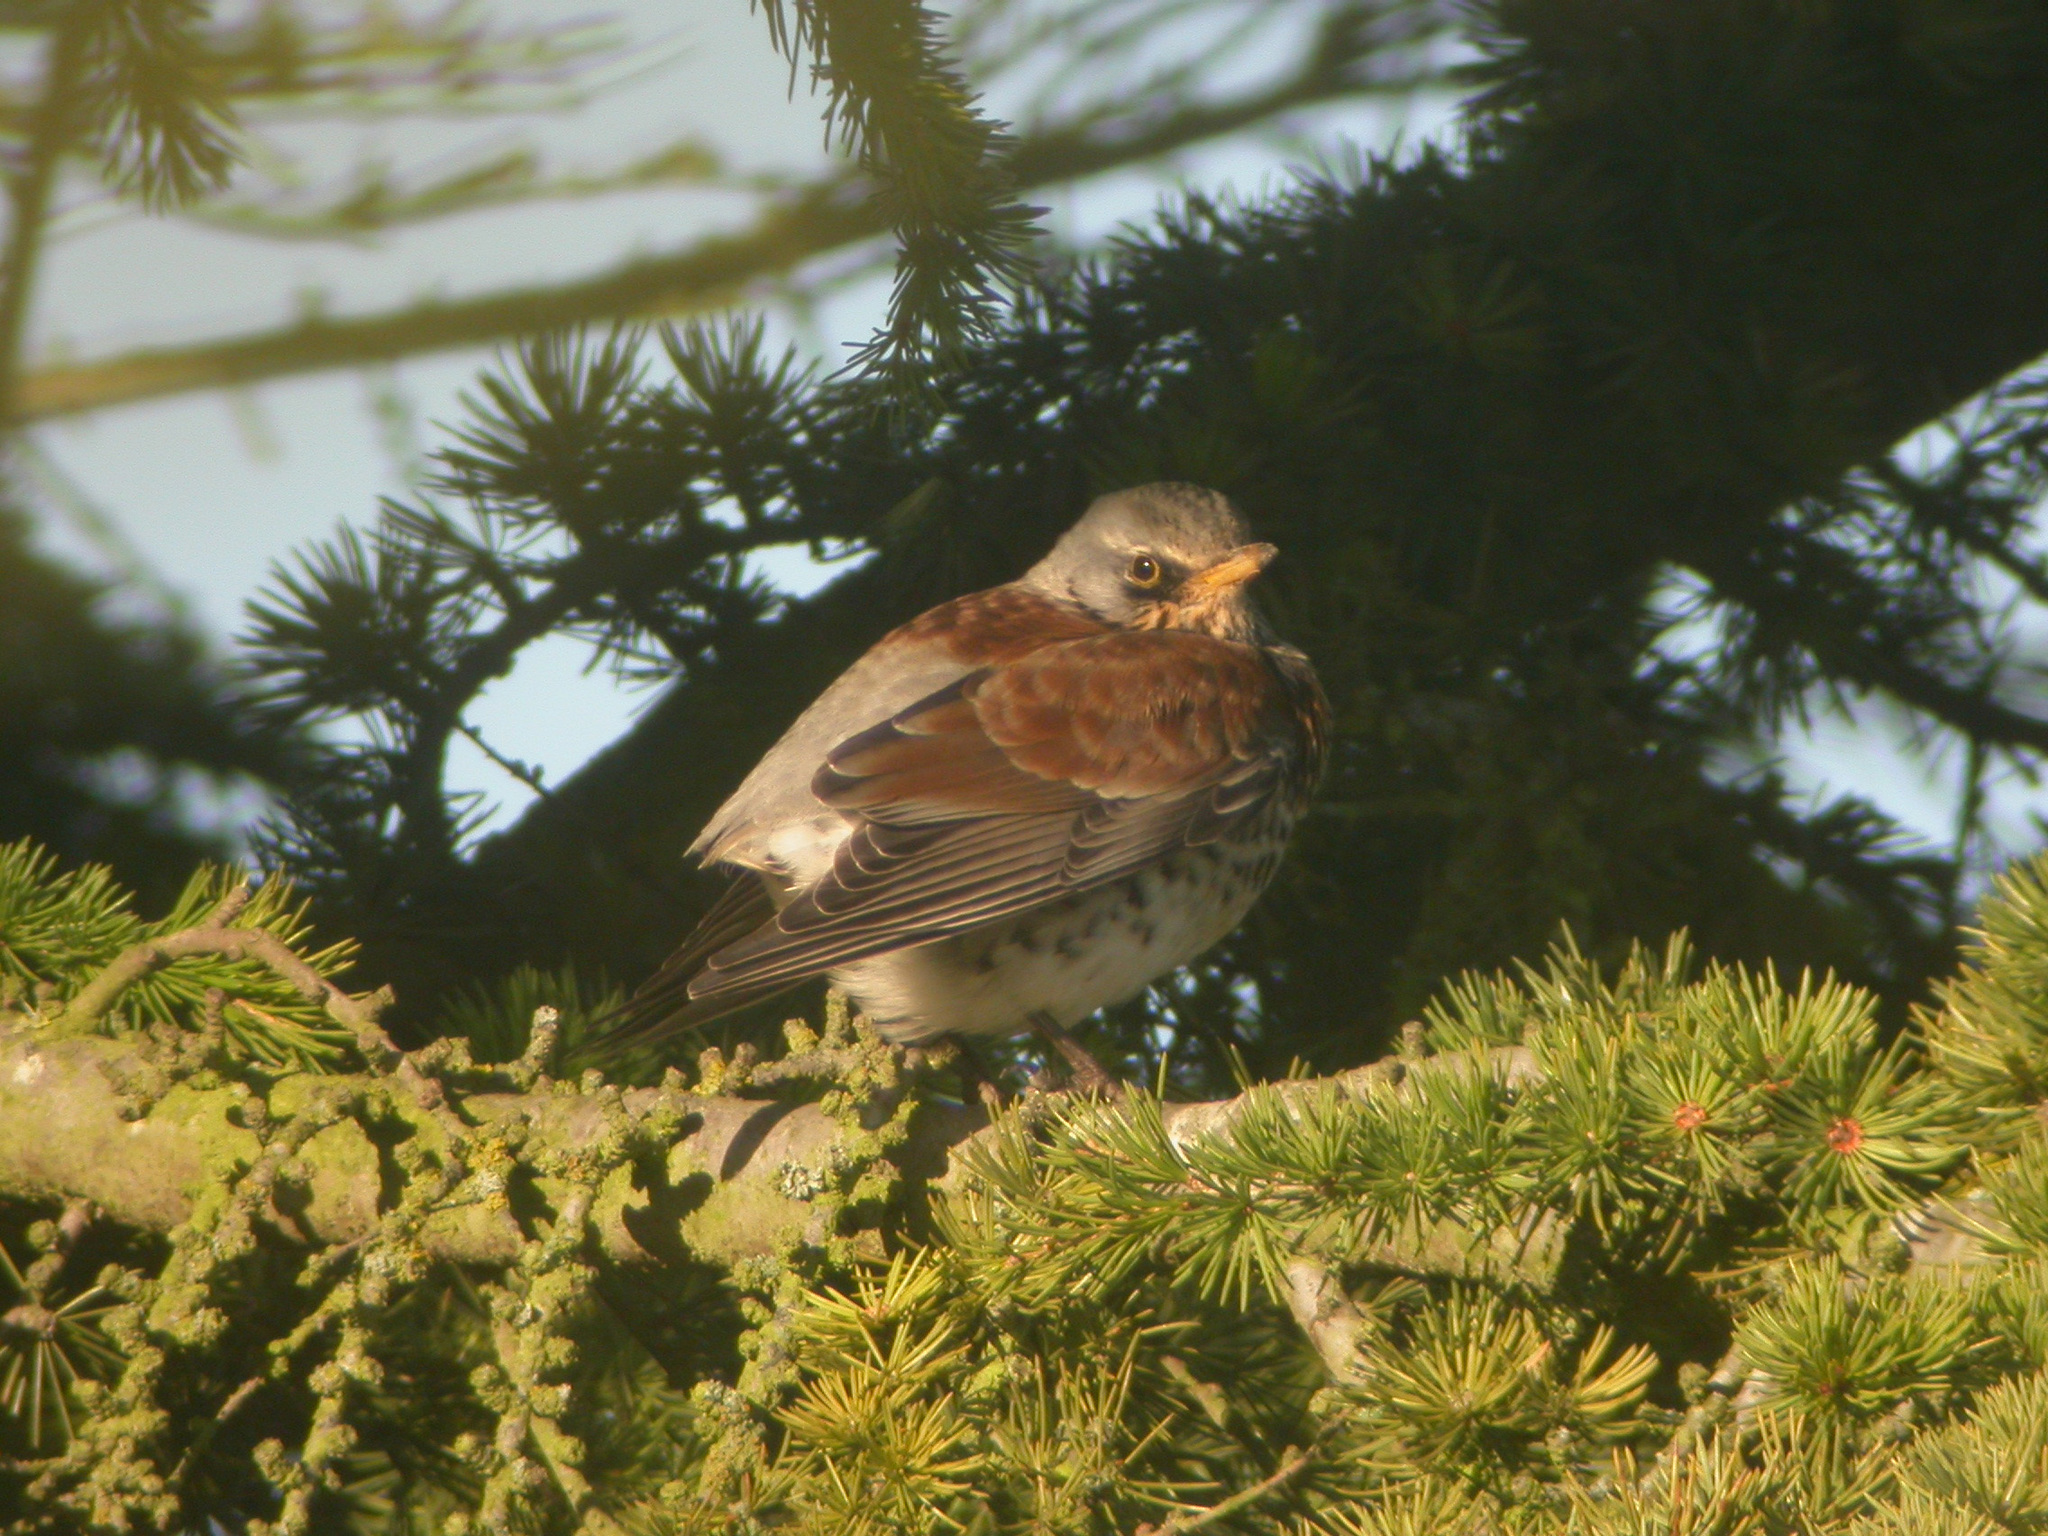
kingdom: Animalia
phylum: Chordata
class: Aves
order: Passeriformes
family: Turdidae
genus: Turdus
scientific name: Turdus pilaris
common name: Fieldfare
